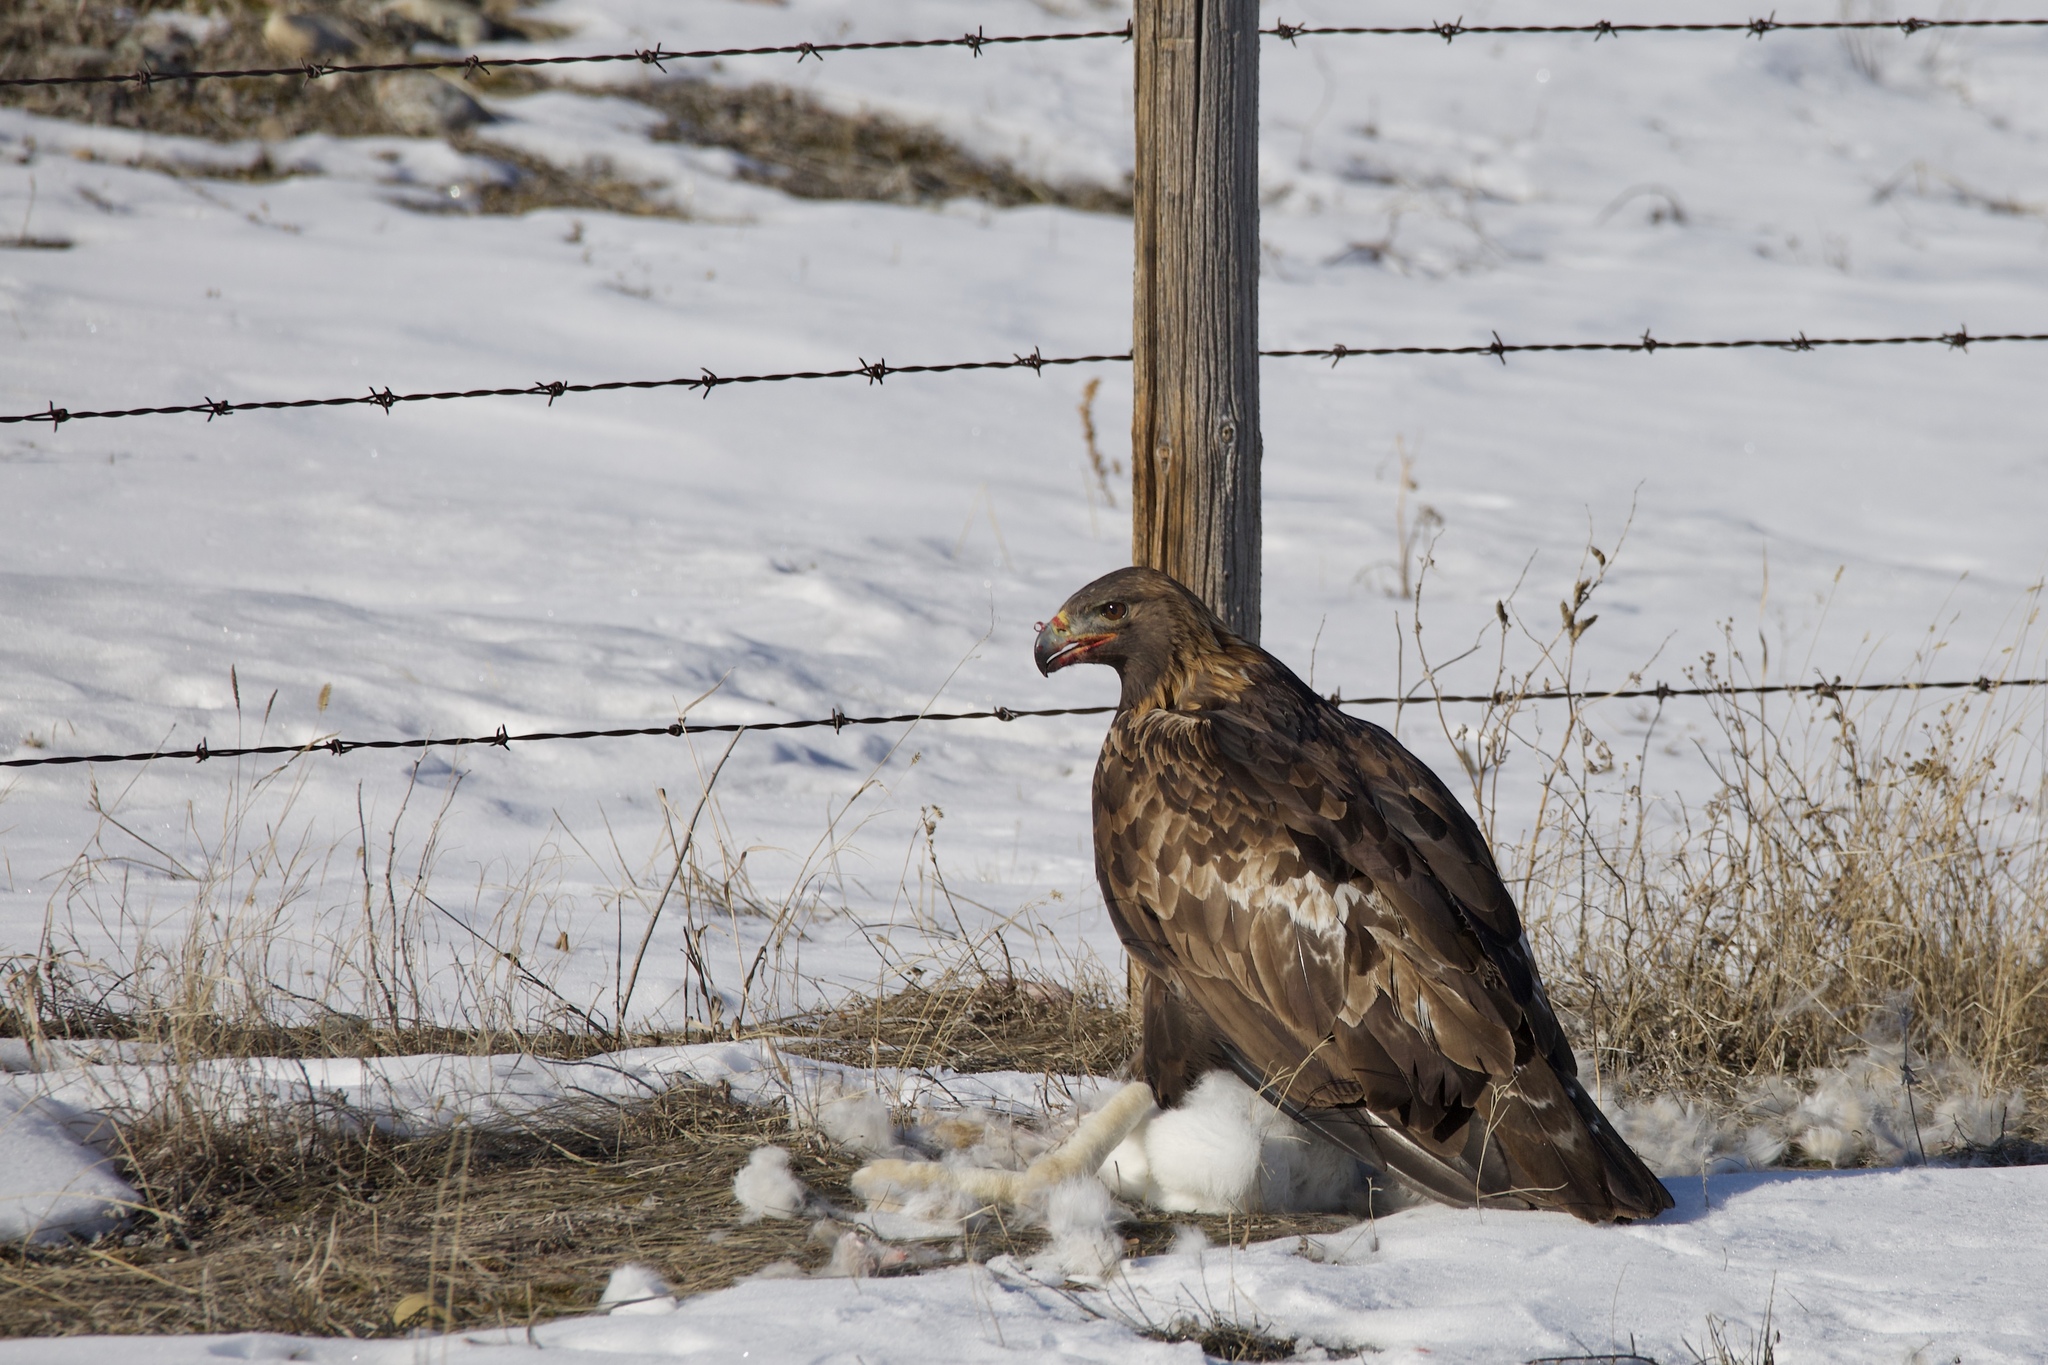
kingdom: Animalia
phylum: Chordata
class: Aves
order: Accipitriformes
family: Accipitridae
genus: Aquila
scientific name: Aquila chrysaetos
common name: Golden eagle
